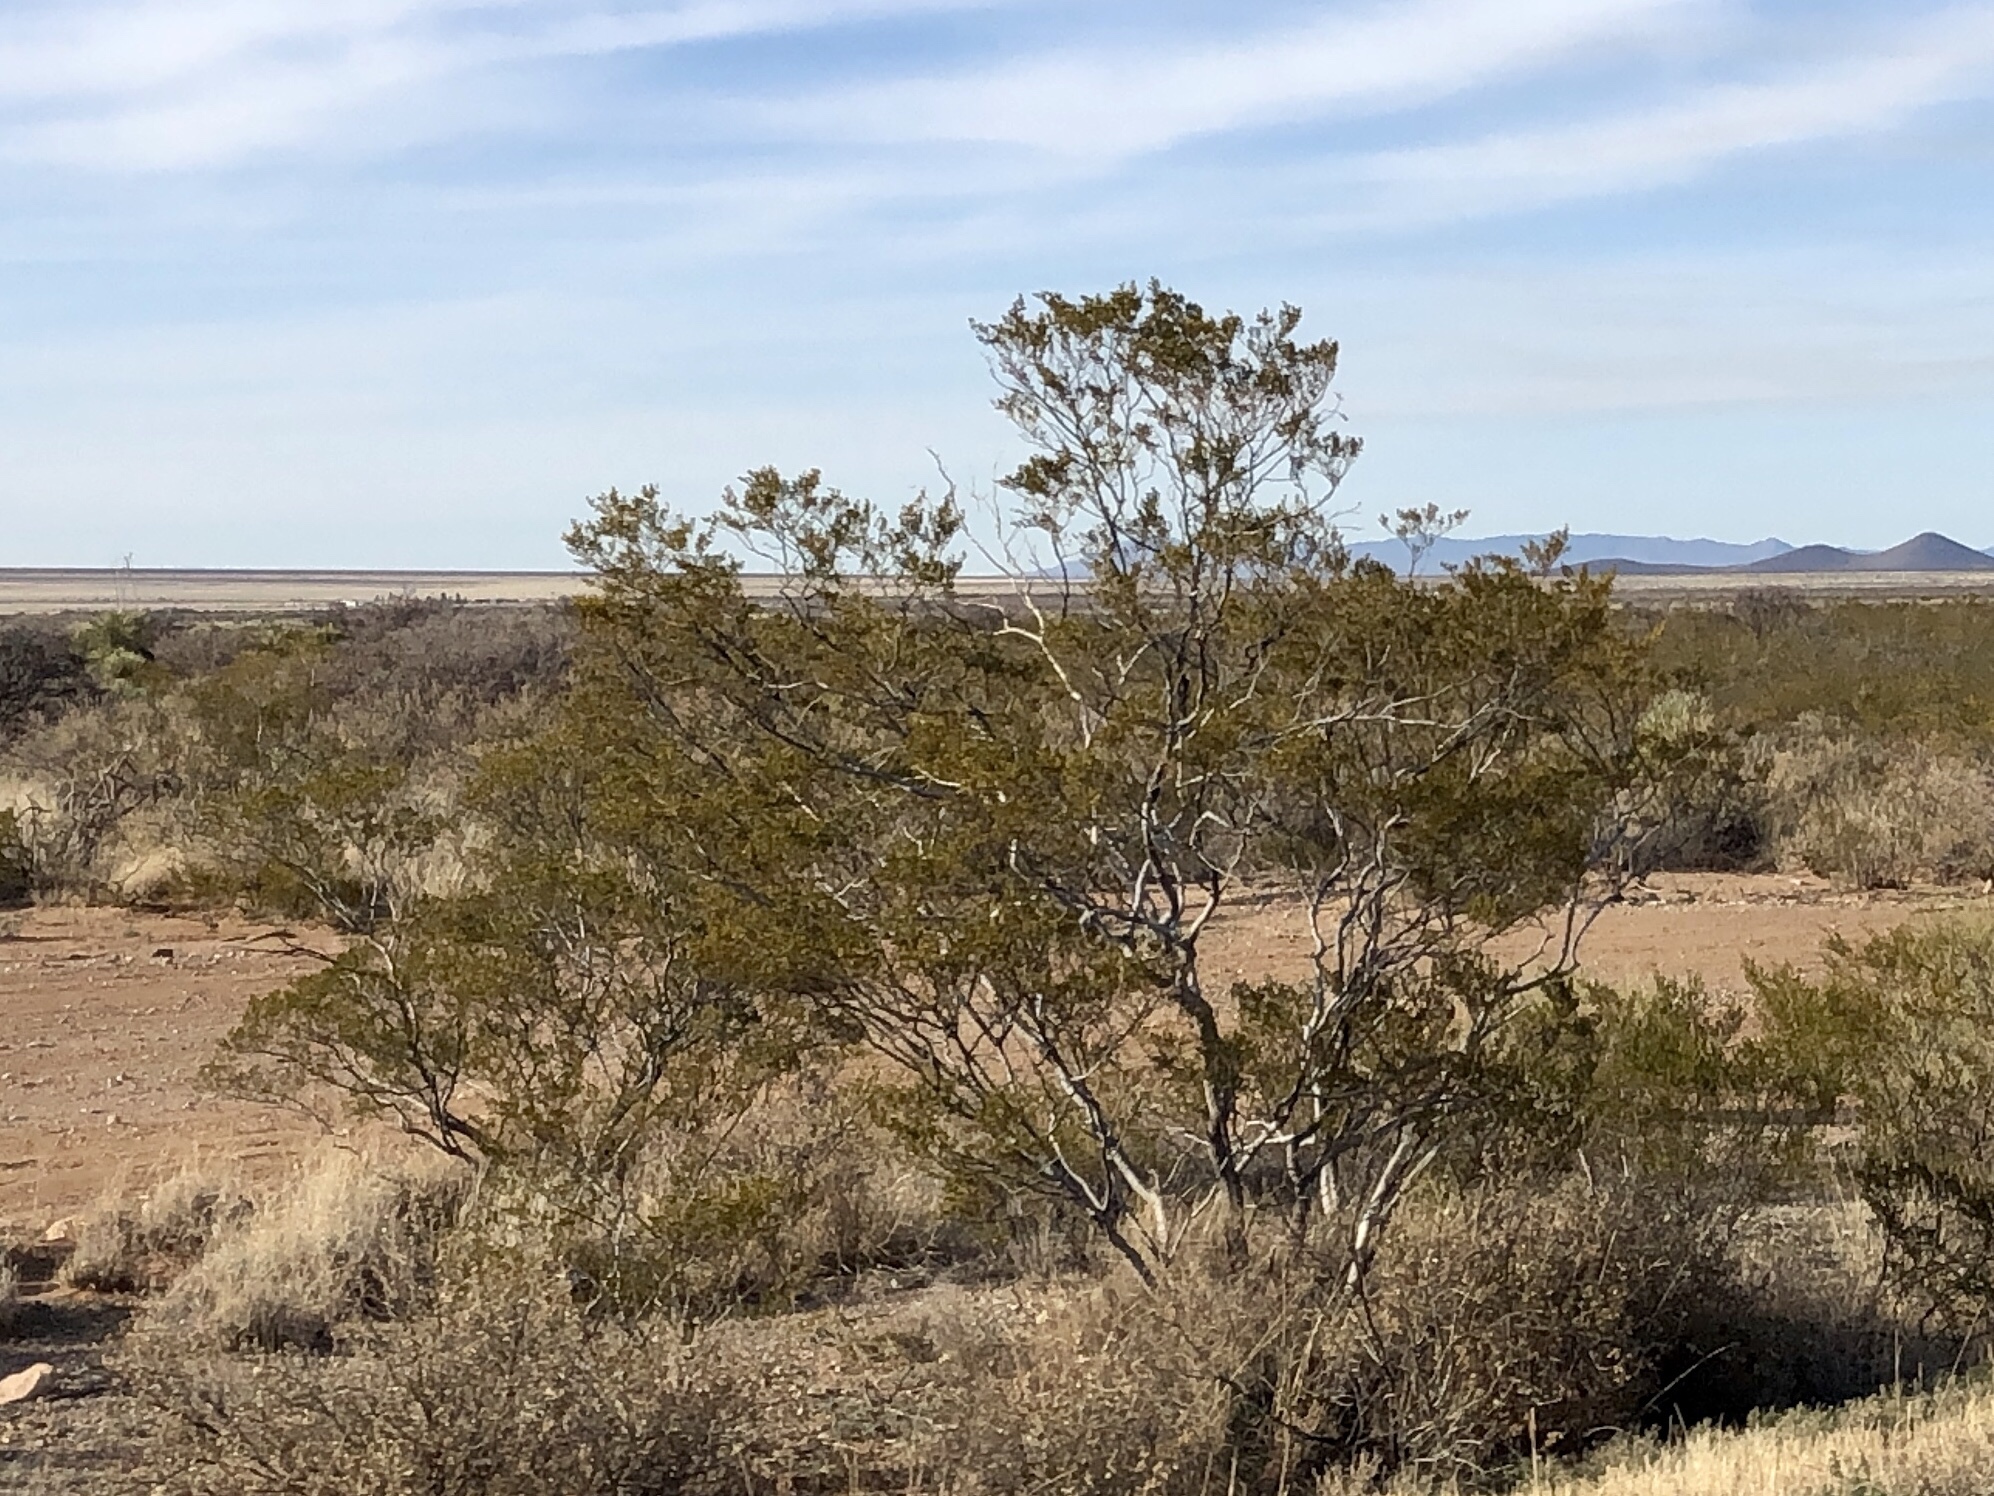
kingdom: Plantae
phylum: Tracheophyta
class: Magnoliopsida
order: Zygophyllales
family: Zygophyllaceae
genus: Larrea
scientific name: Larrea tridentata
